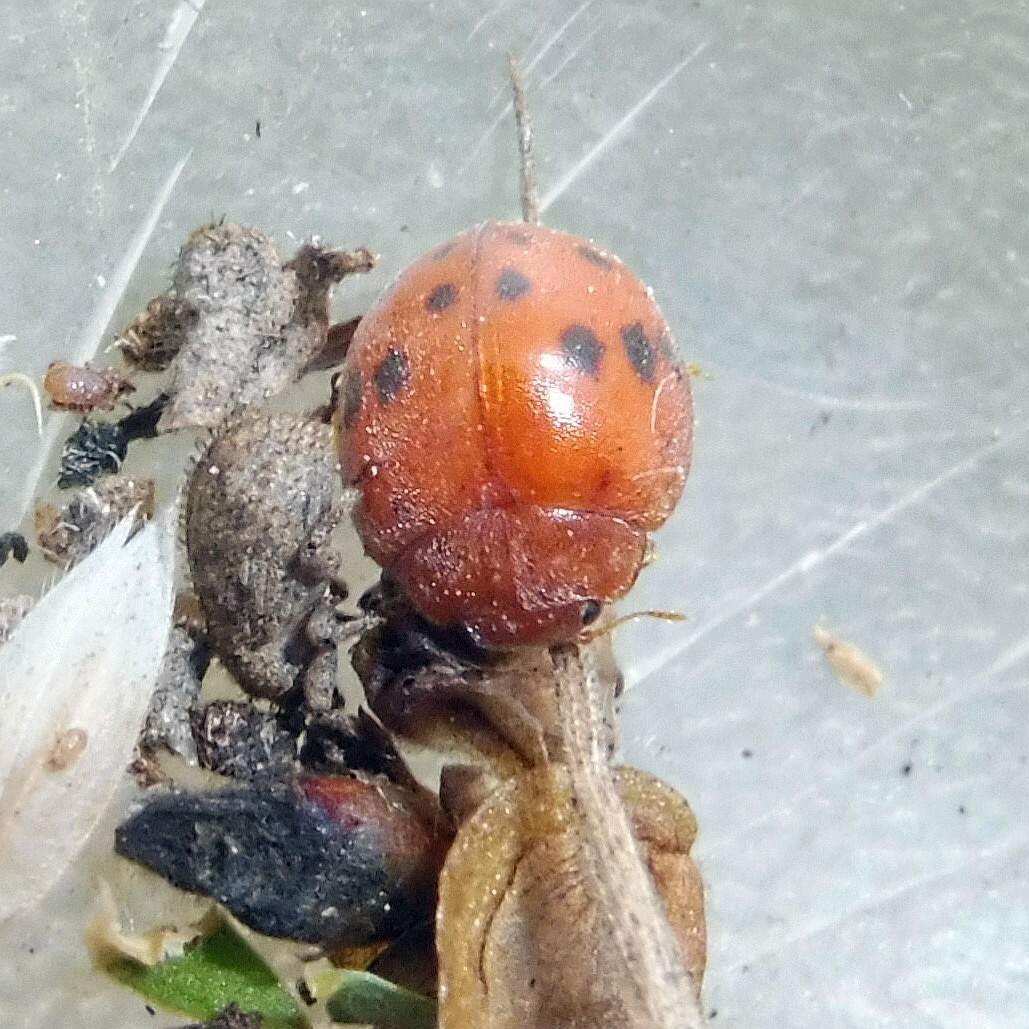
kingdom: Animalia
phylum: Arthropoda
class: Insecta
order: Coleoptera
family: Coccinellidae
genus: Subcoccinella
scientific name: Subcoccinella vigintiquatuorpunctata
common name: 24-spot ladybird
